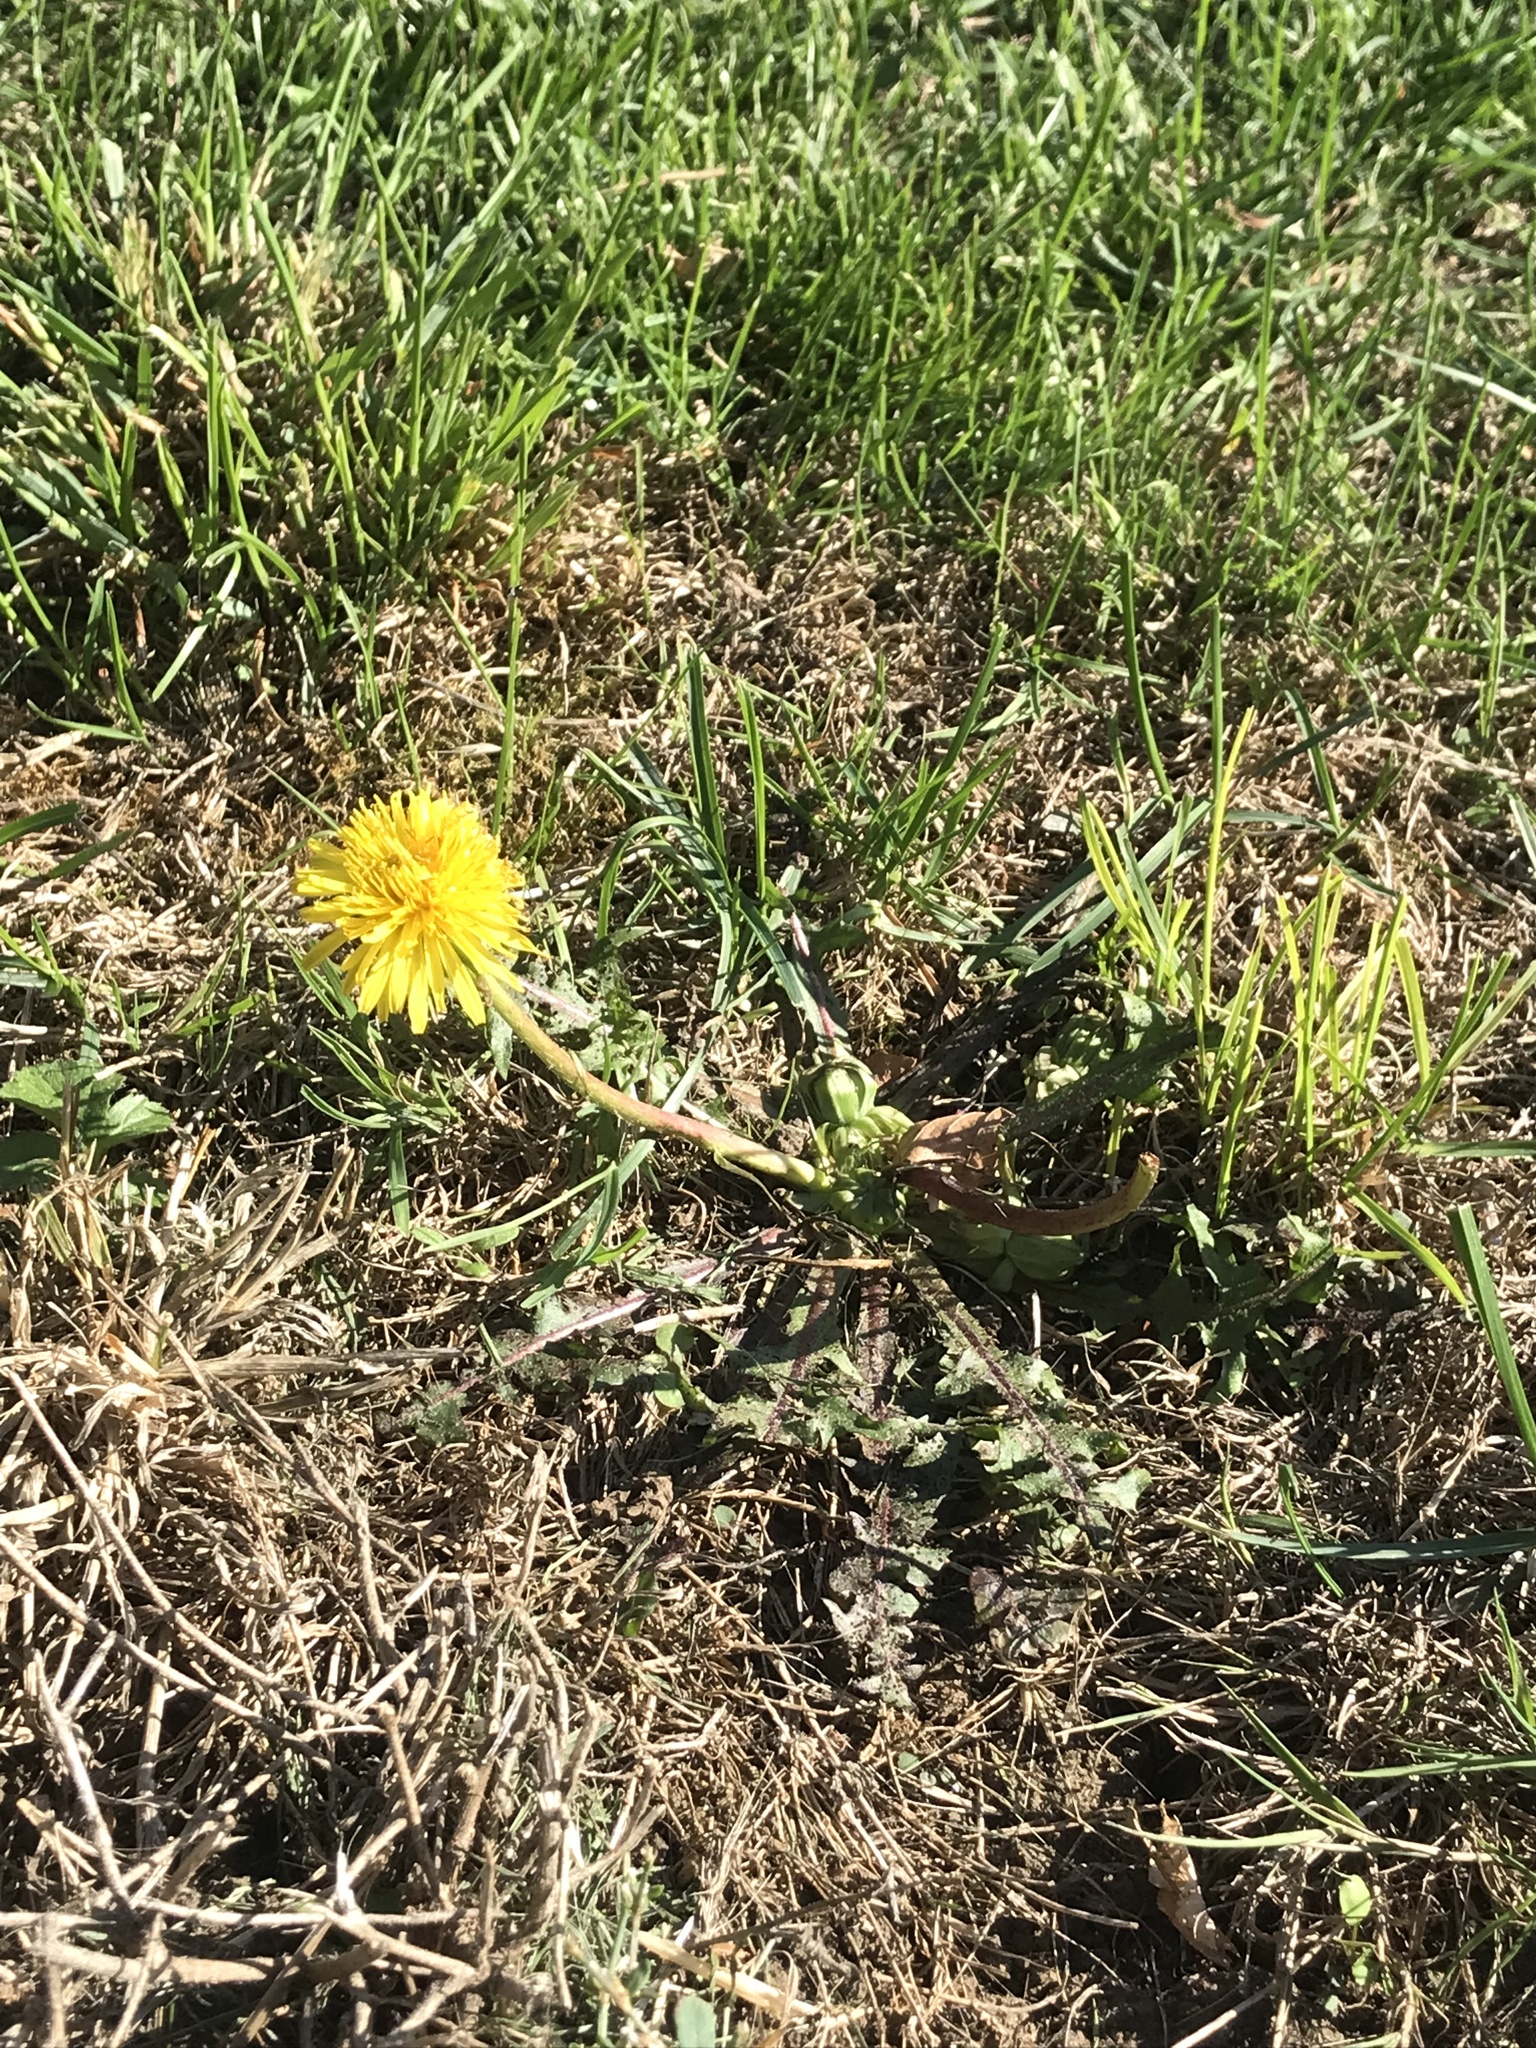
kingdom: Plantae
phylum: Tracheophyta
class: Magnoliopsida
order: Asterales
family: Asteraceae
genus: Taraxacum
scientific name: Taraxacum officinale
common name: Common dandelion
